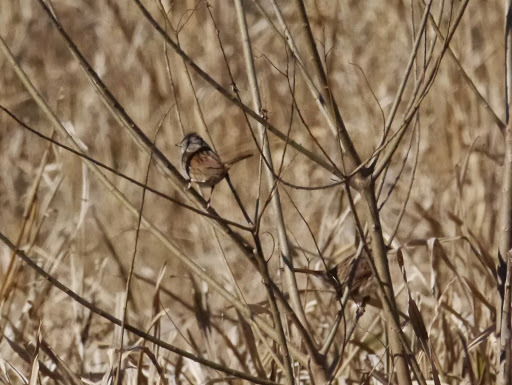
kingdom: Animalia
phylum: Chordata
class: Aves
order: Passeriformes
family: Passerellidae
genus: Melospiza
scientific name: Melospiza georgiana
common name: Swamp sparrow
